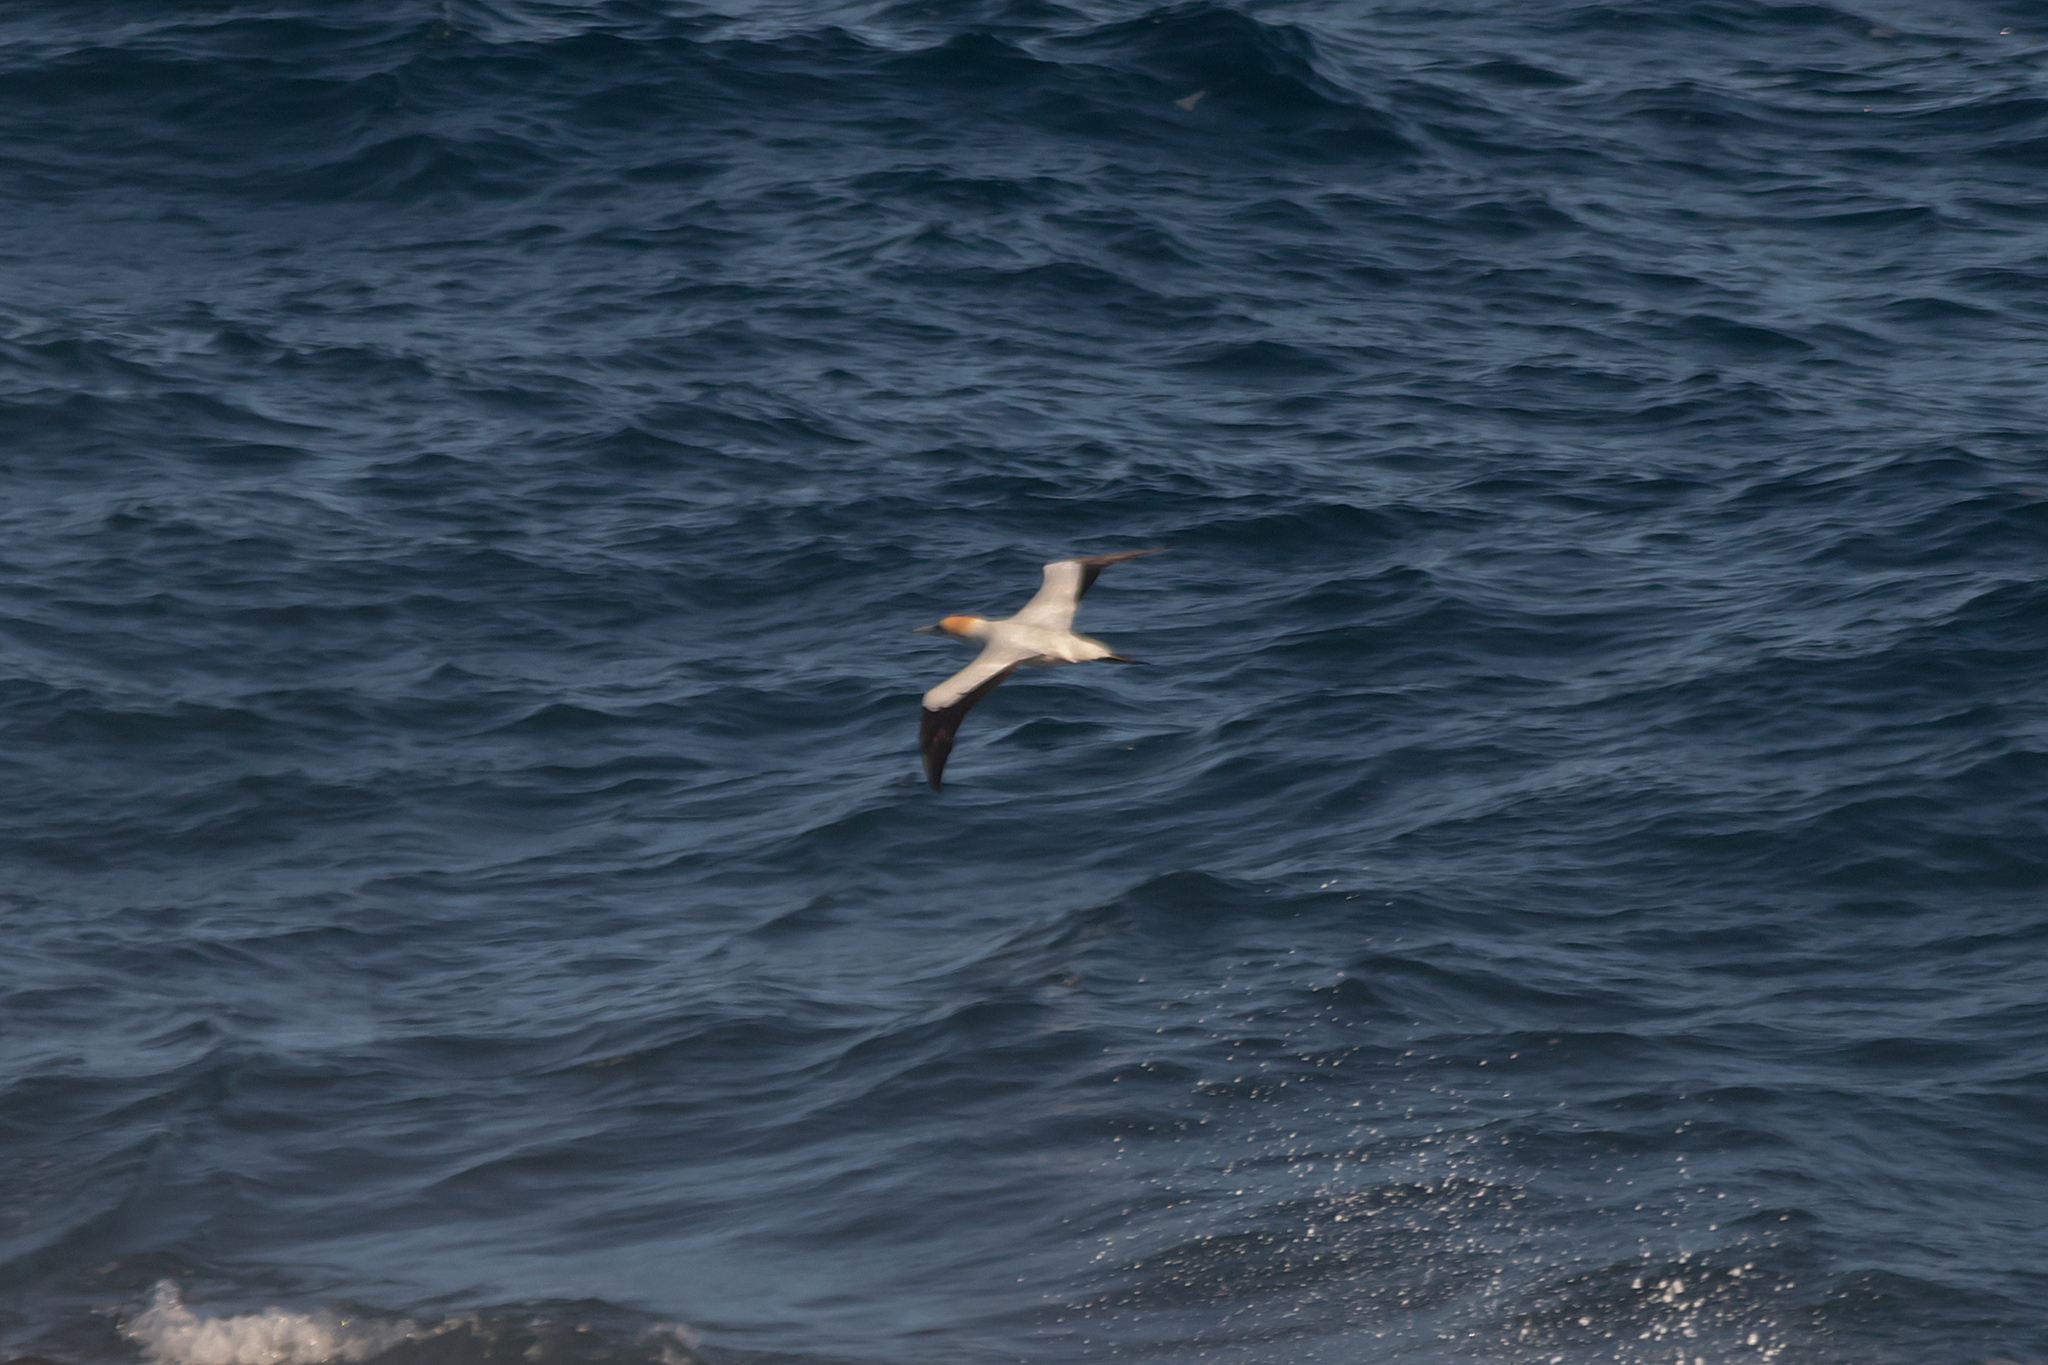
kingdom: Animalia
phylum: Chordata
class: Aves
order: Suliformes
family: Sulidae
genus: Morus
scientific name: Morus serrator
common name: Australasian gannet
